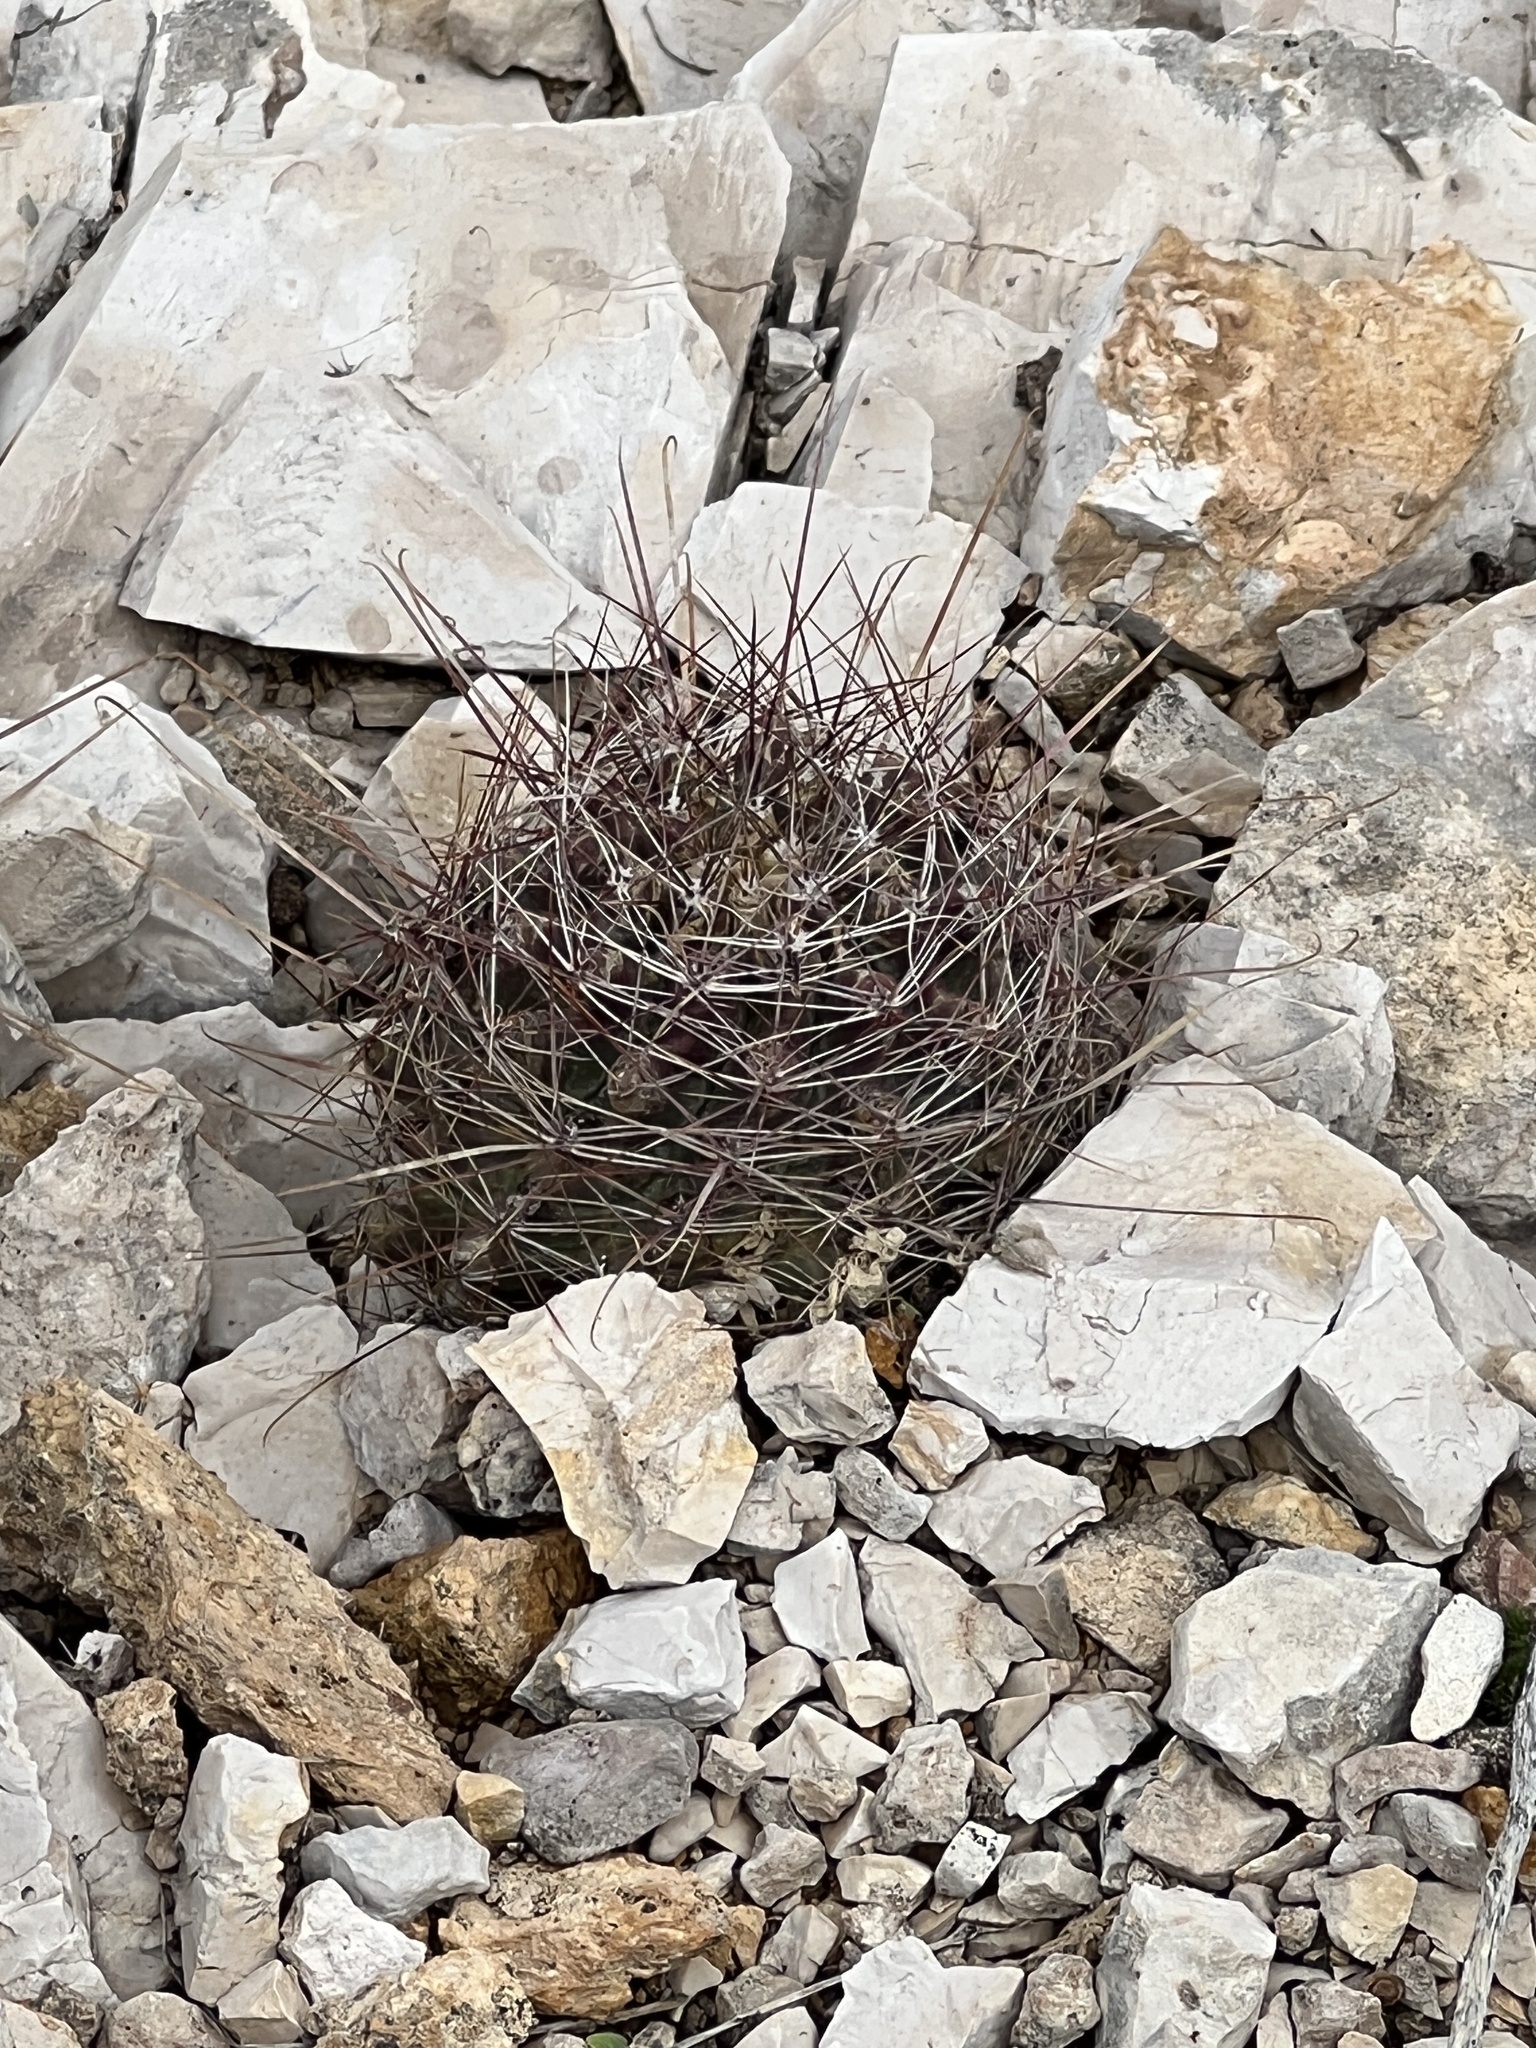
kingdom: Plantae
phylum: Tracheophyta
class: Magnoliopsida
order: Caryophyllales
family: Cactaceae
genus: Bisnaga
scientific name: Bisnaga hamatacantha
